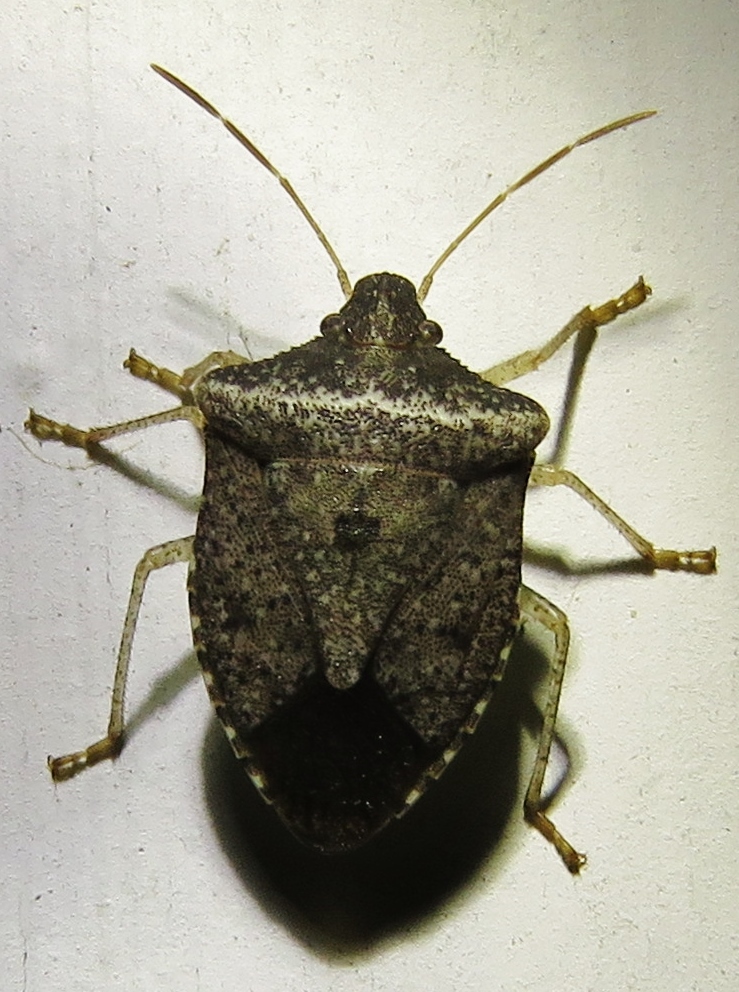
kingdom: Animalia
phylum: Arthropoda
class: Insecta
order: Hemiptera
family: Pentatomidae
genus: Euschistus
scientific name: Euschistus obscurus
